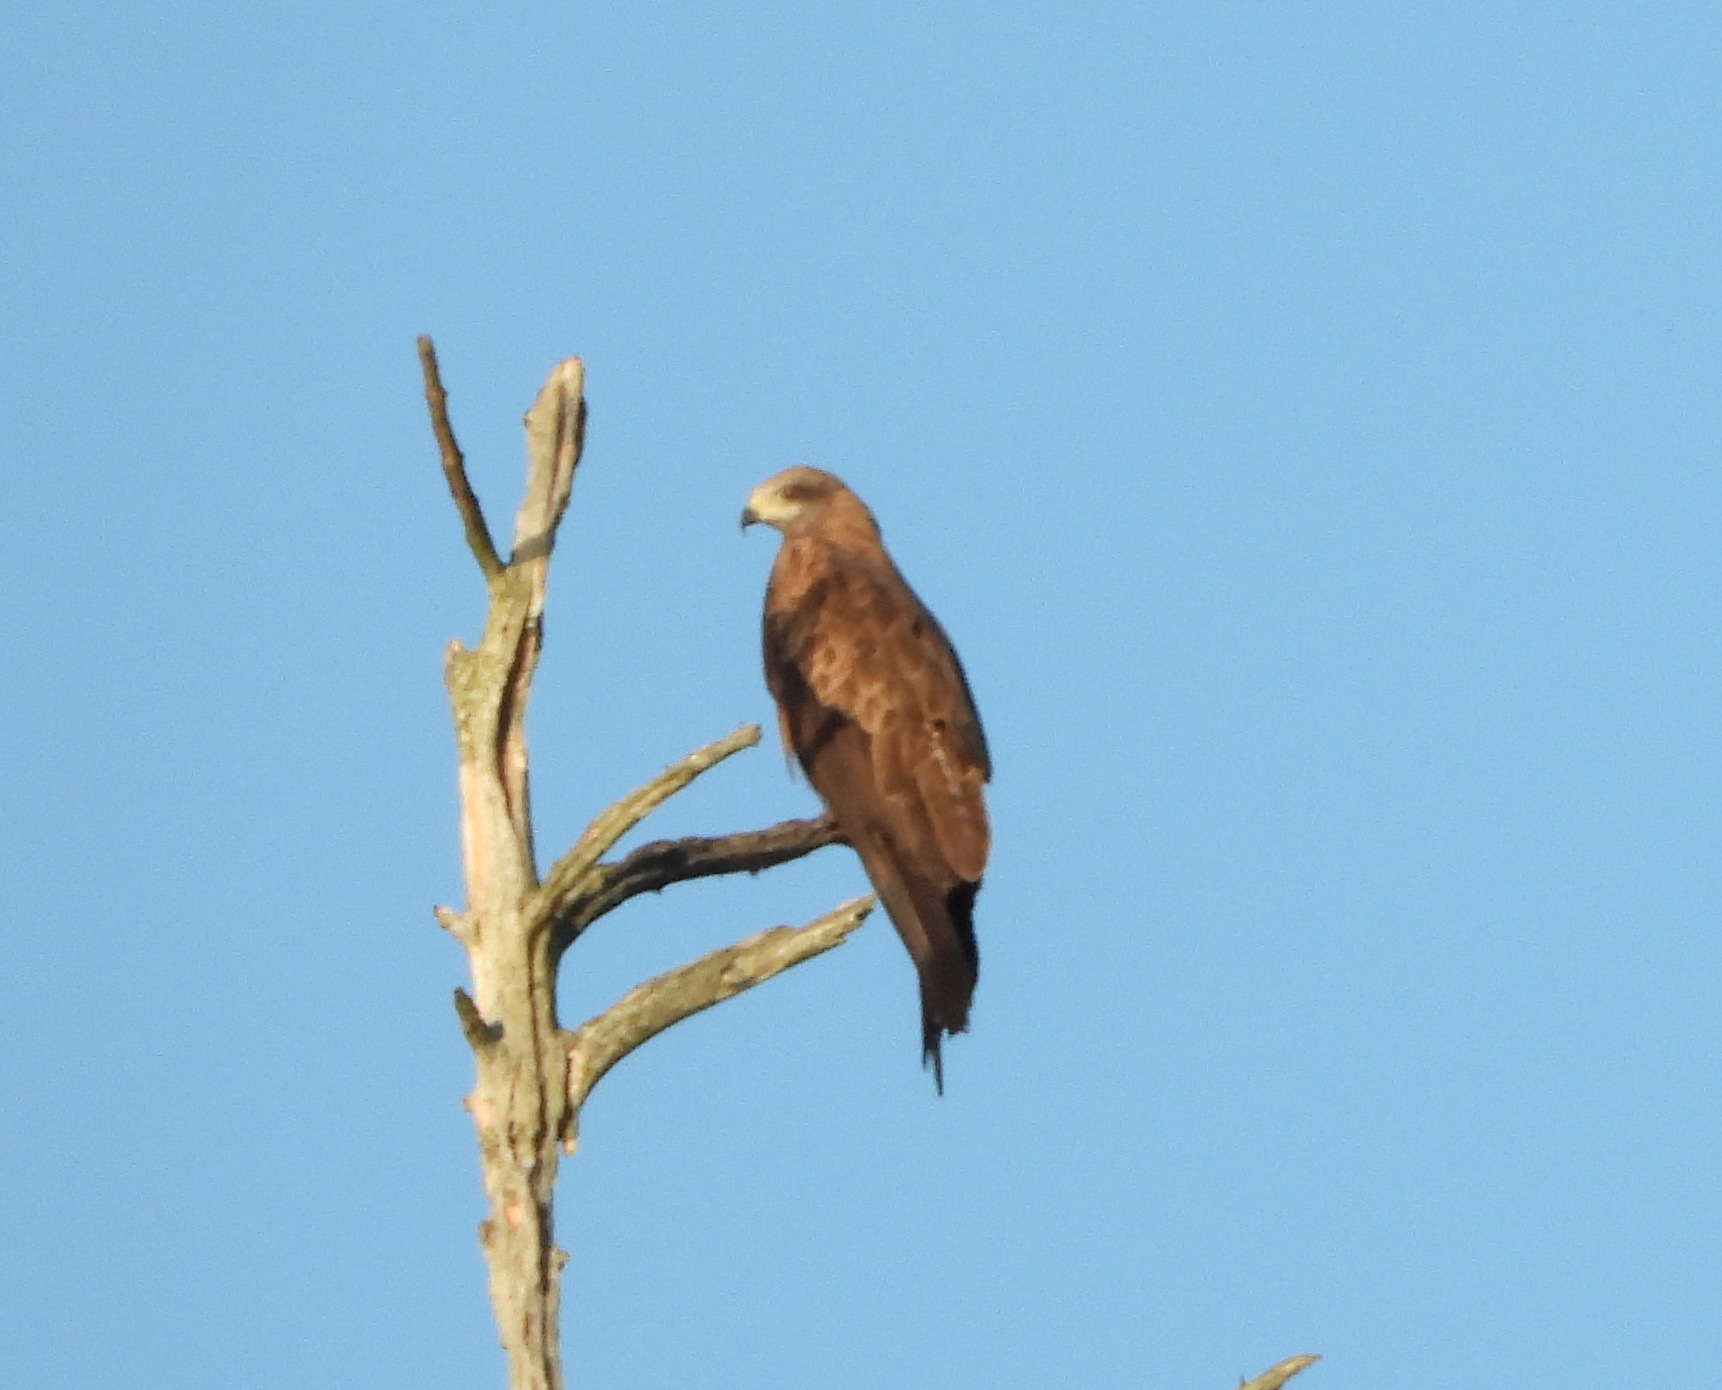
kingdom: Animalia
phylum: Chordata
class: Aves
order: Accipitriformes
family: Accipitridae
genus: Milvus
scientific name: Milvus migrans
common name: Black kite
